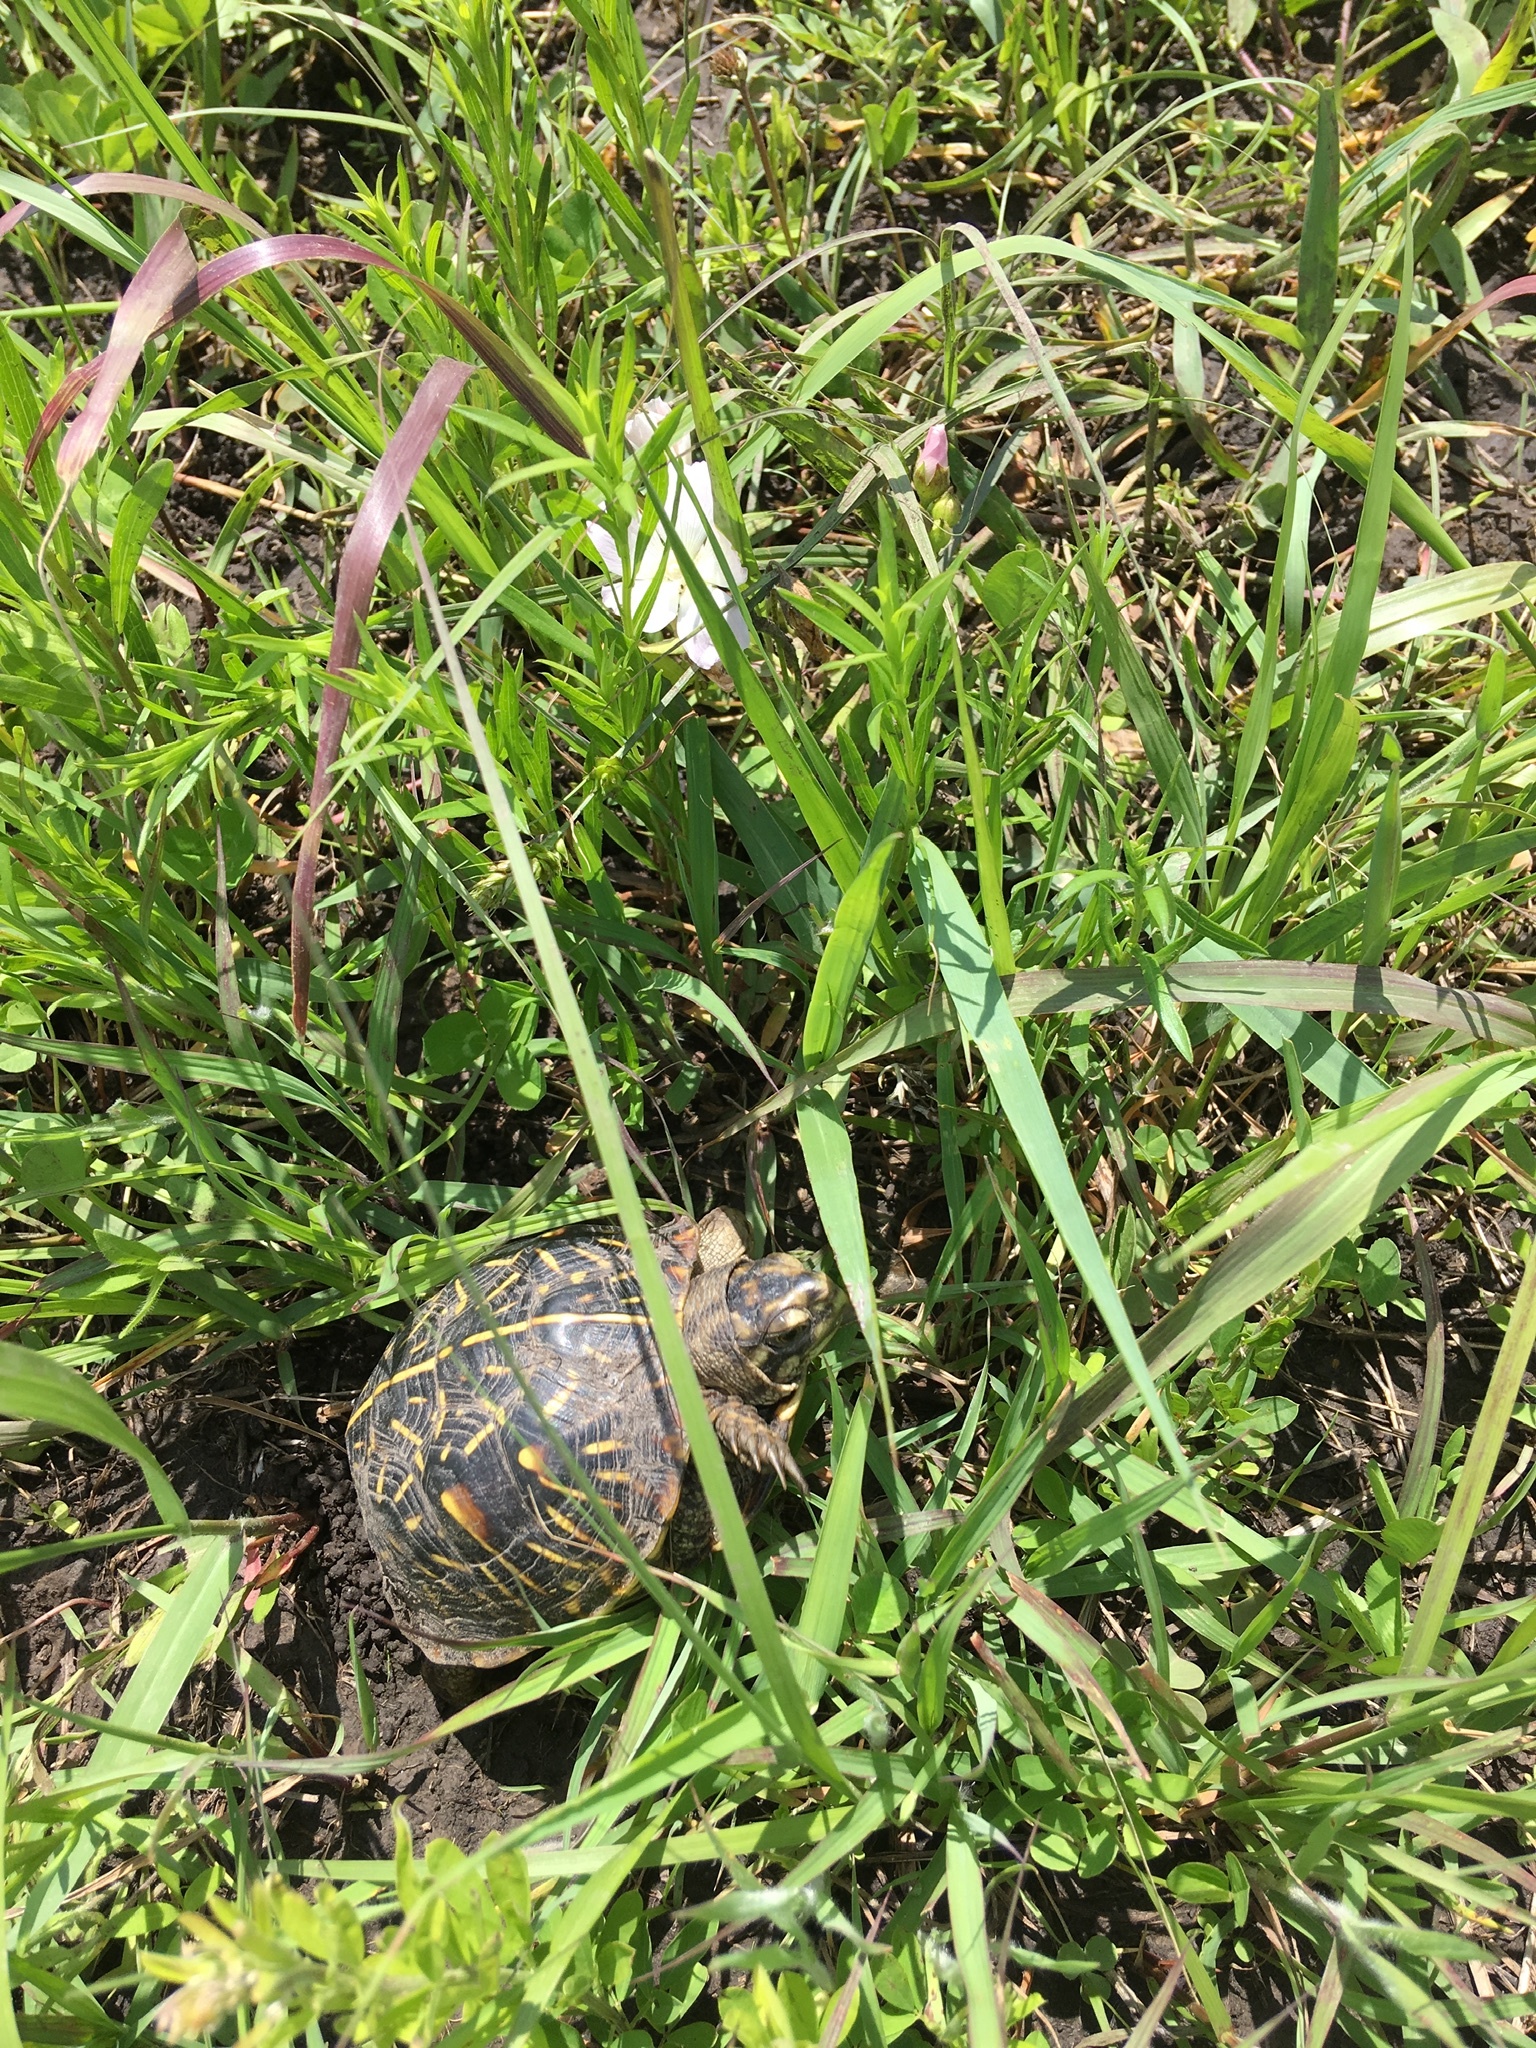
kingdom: Animalia
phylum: Chordata
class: Testudines
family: Emydidae
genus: Terrapene
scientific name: Terrapene ornata
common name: Western box turtle
